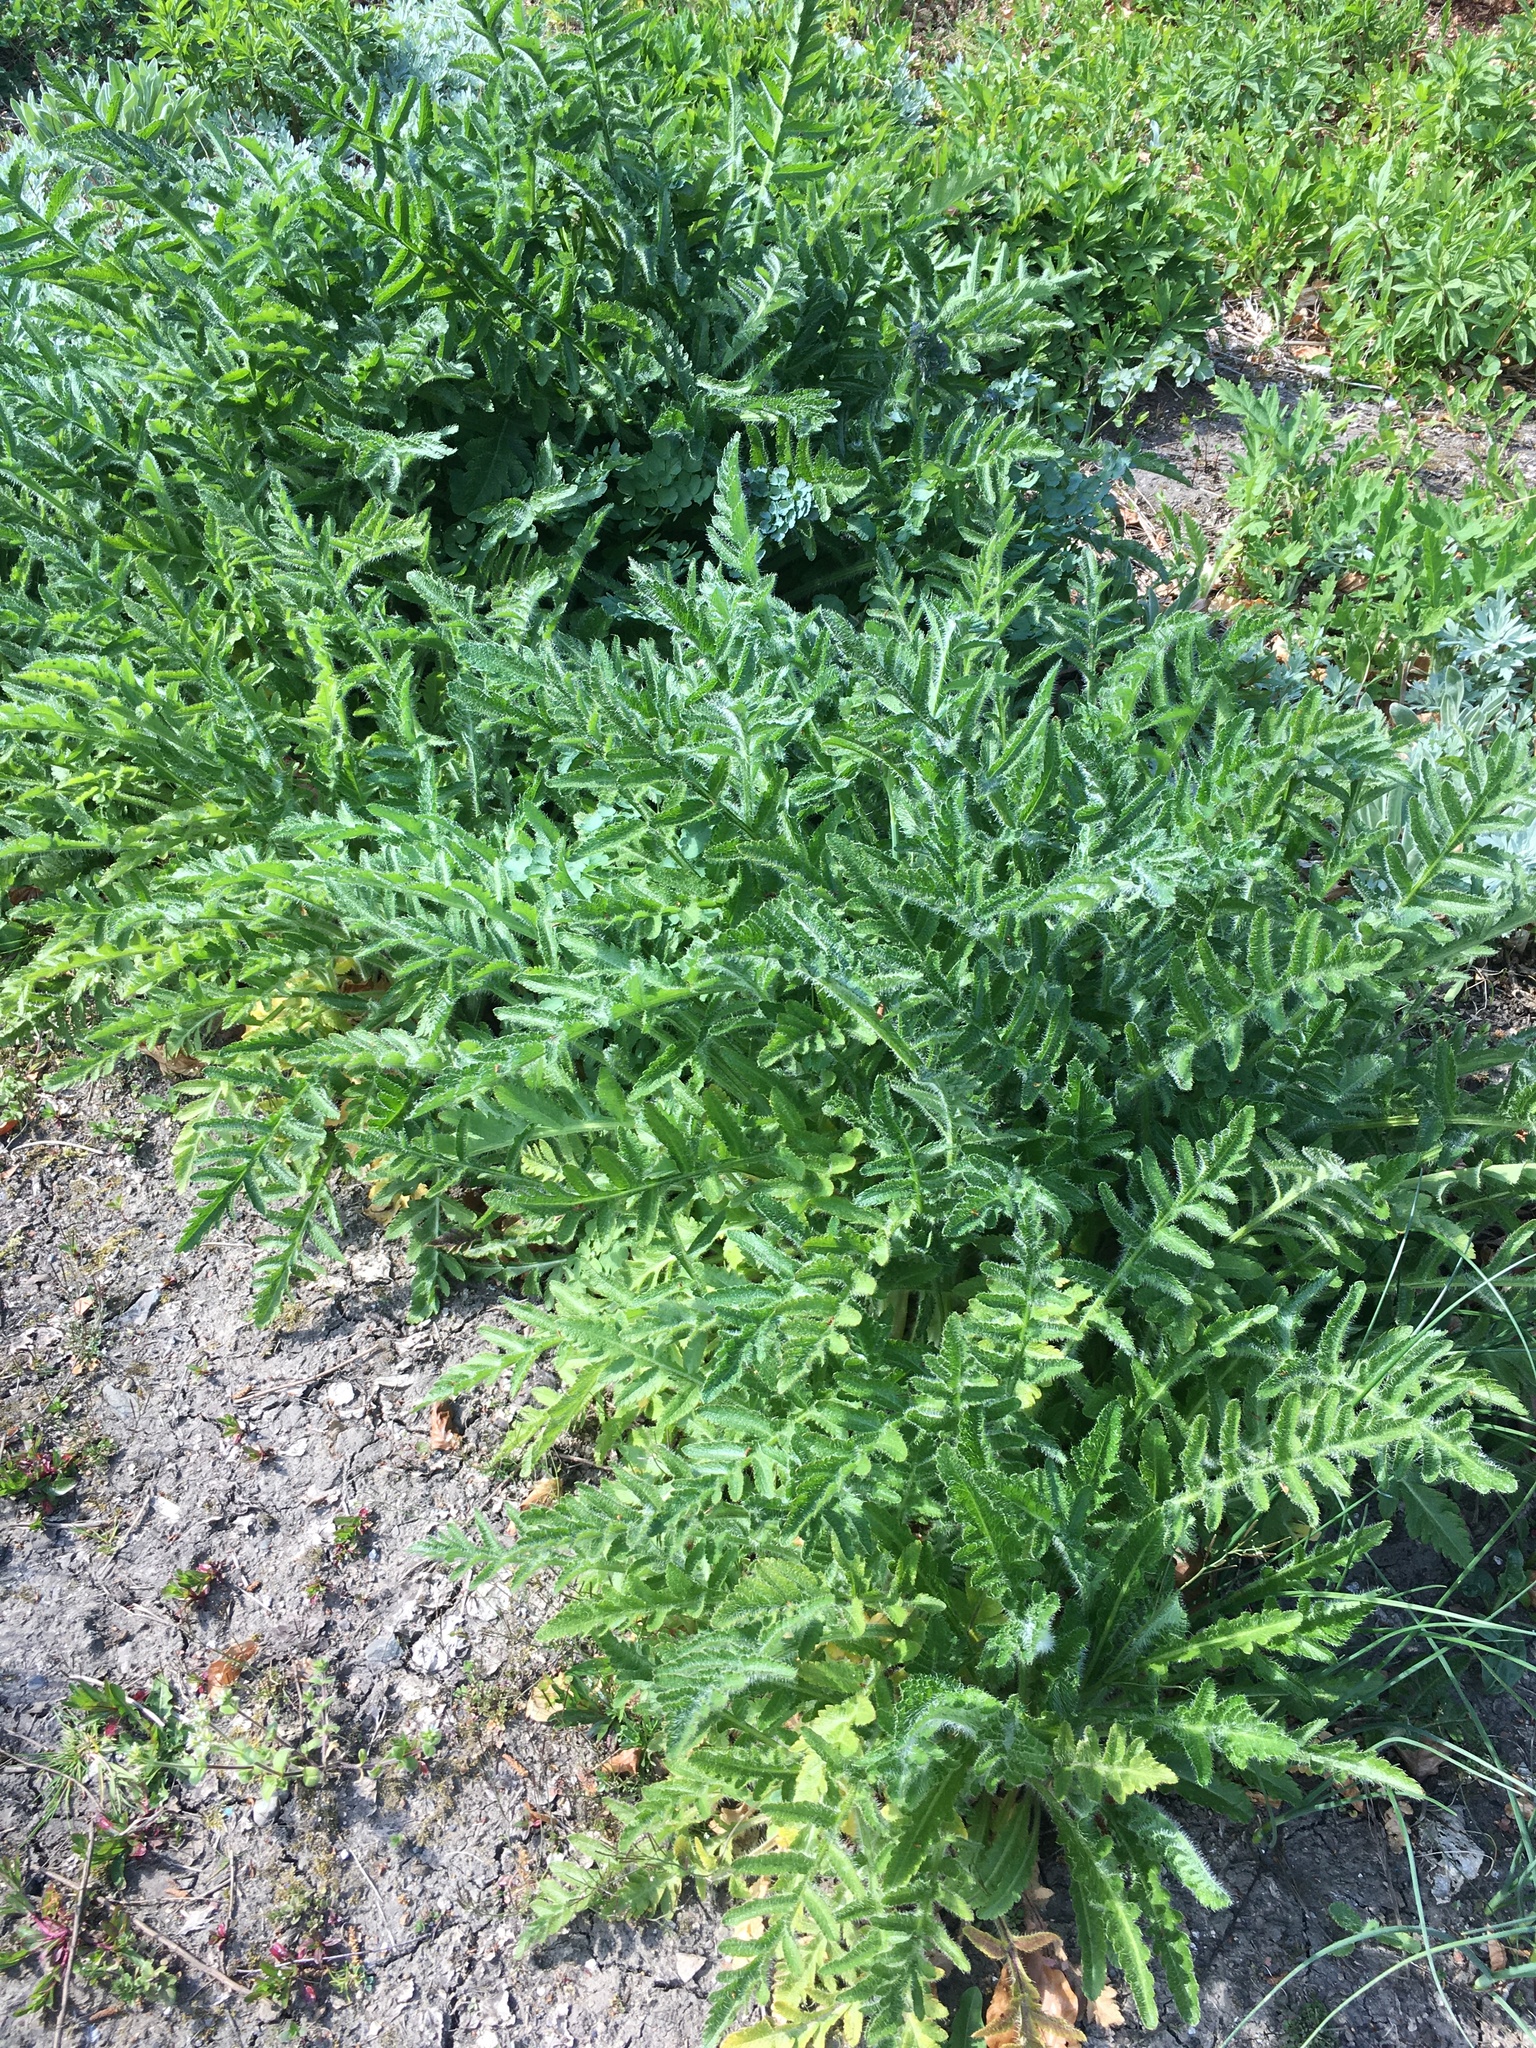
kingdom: Plantae
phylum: Tracheophyta
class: Magnoliopsida
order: Ranunculales
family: Papaveraceae
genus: Papaver
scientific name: Papaver orientale
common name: Oriental poppy
